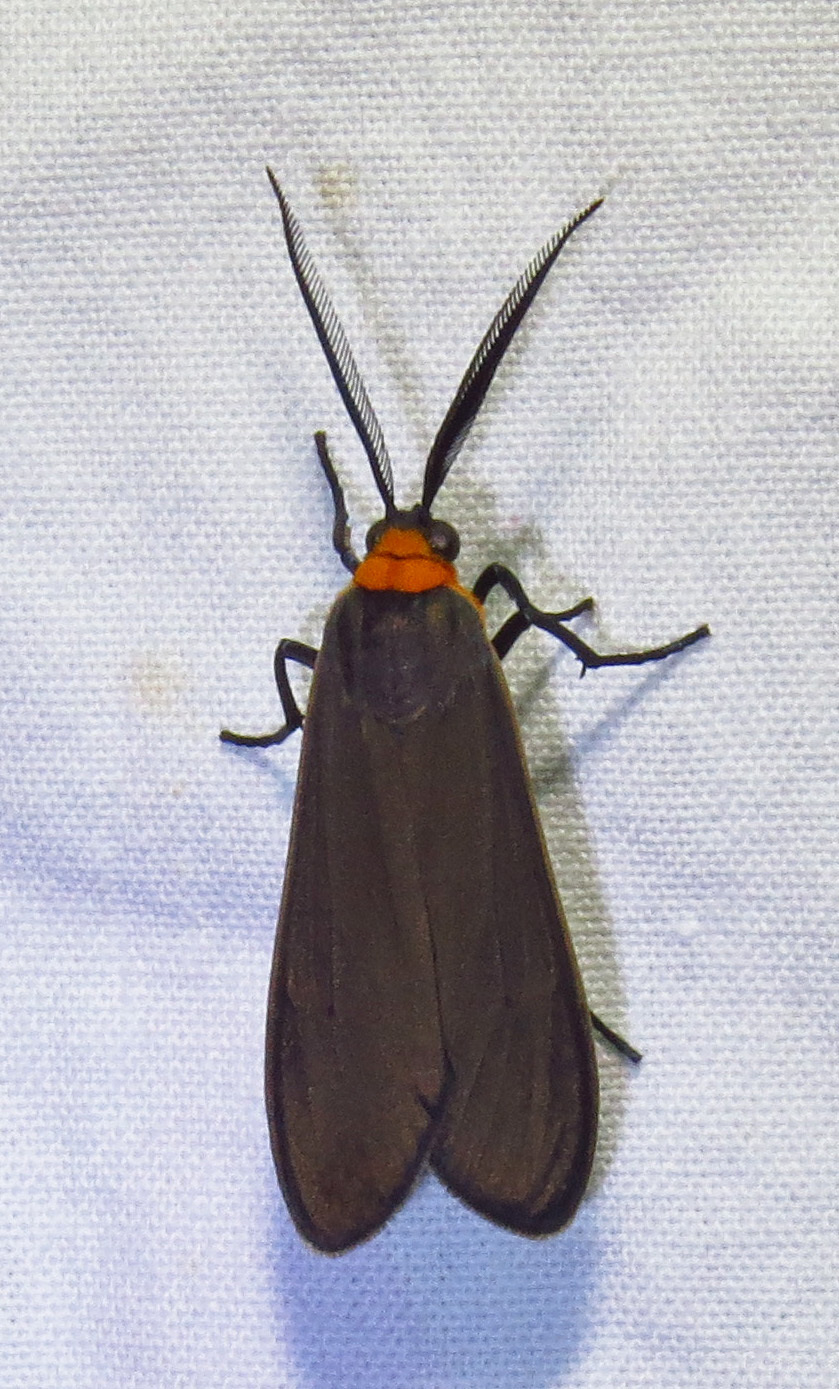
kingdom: Animalia
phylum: Arthropoda
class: Insecta
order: Lepidoptera
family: Erebidae
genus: Cisseps
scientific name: Cisseps fulvicollis
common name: Yellow-collared scape moth
